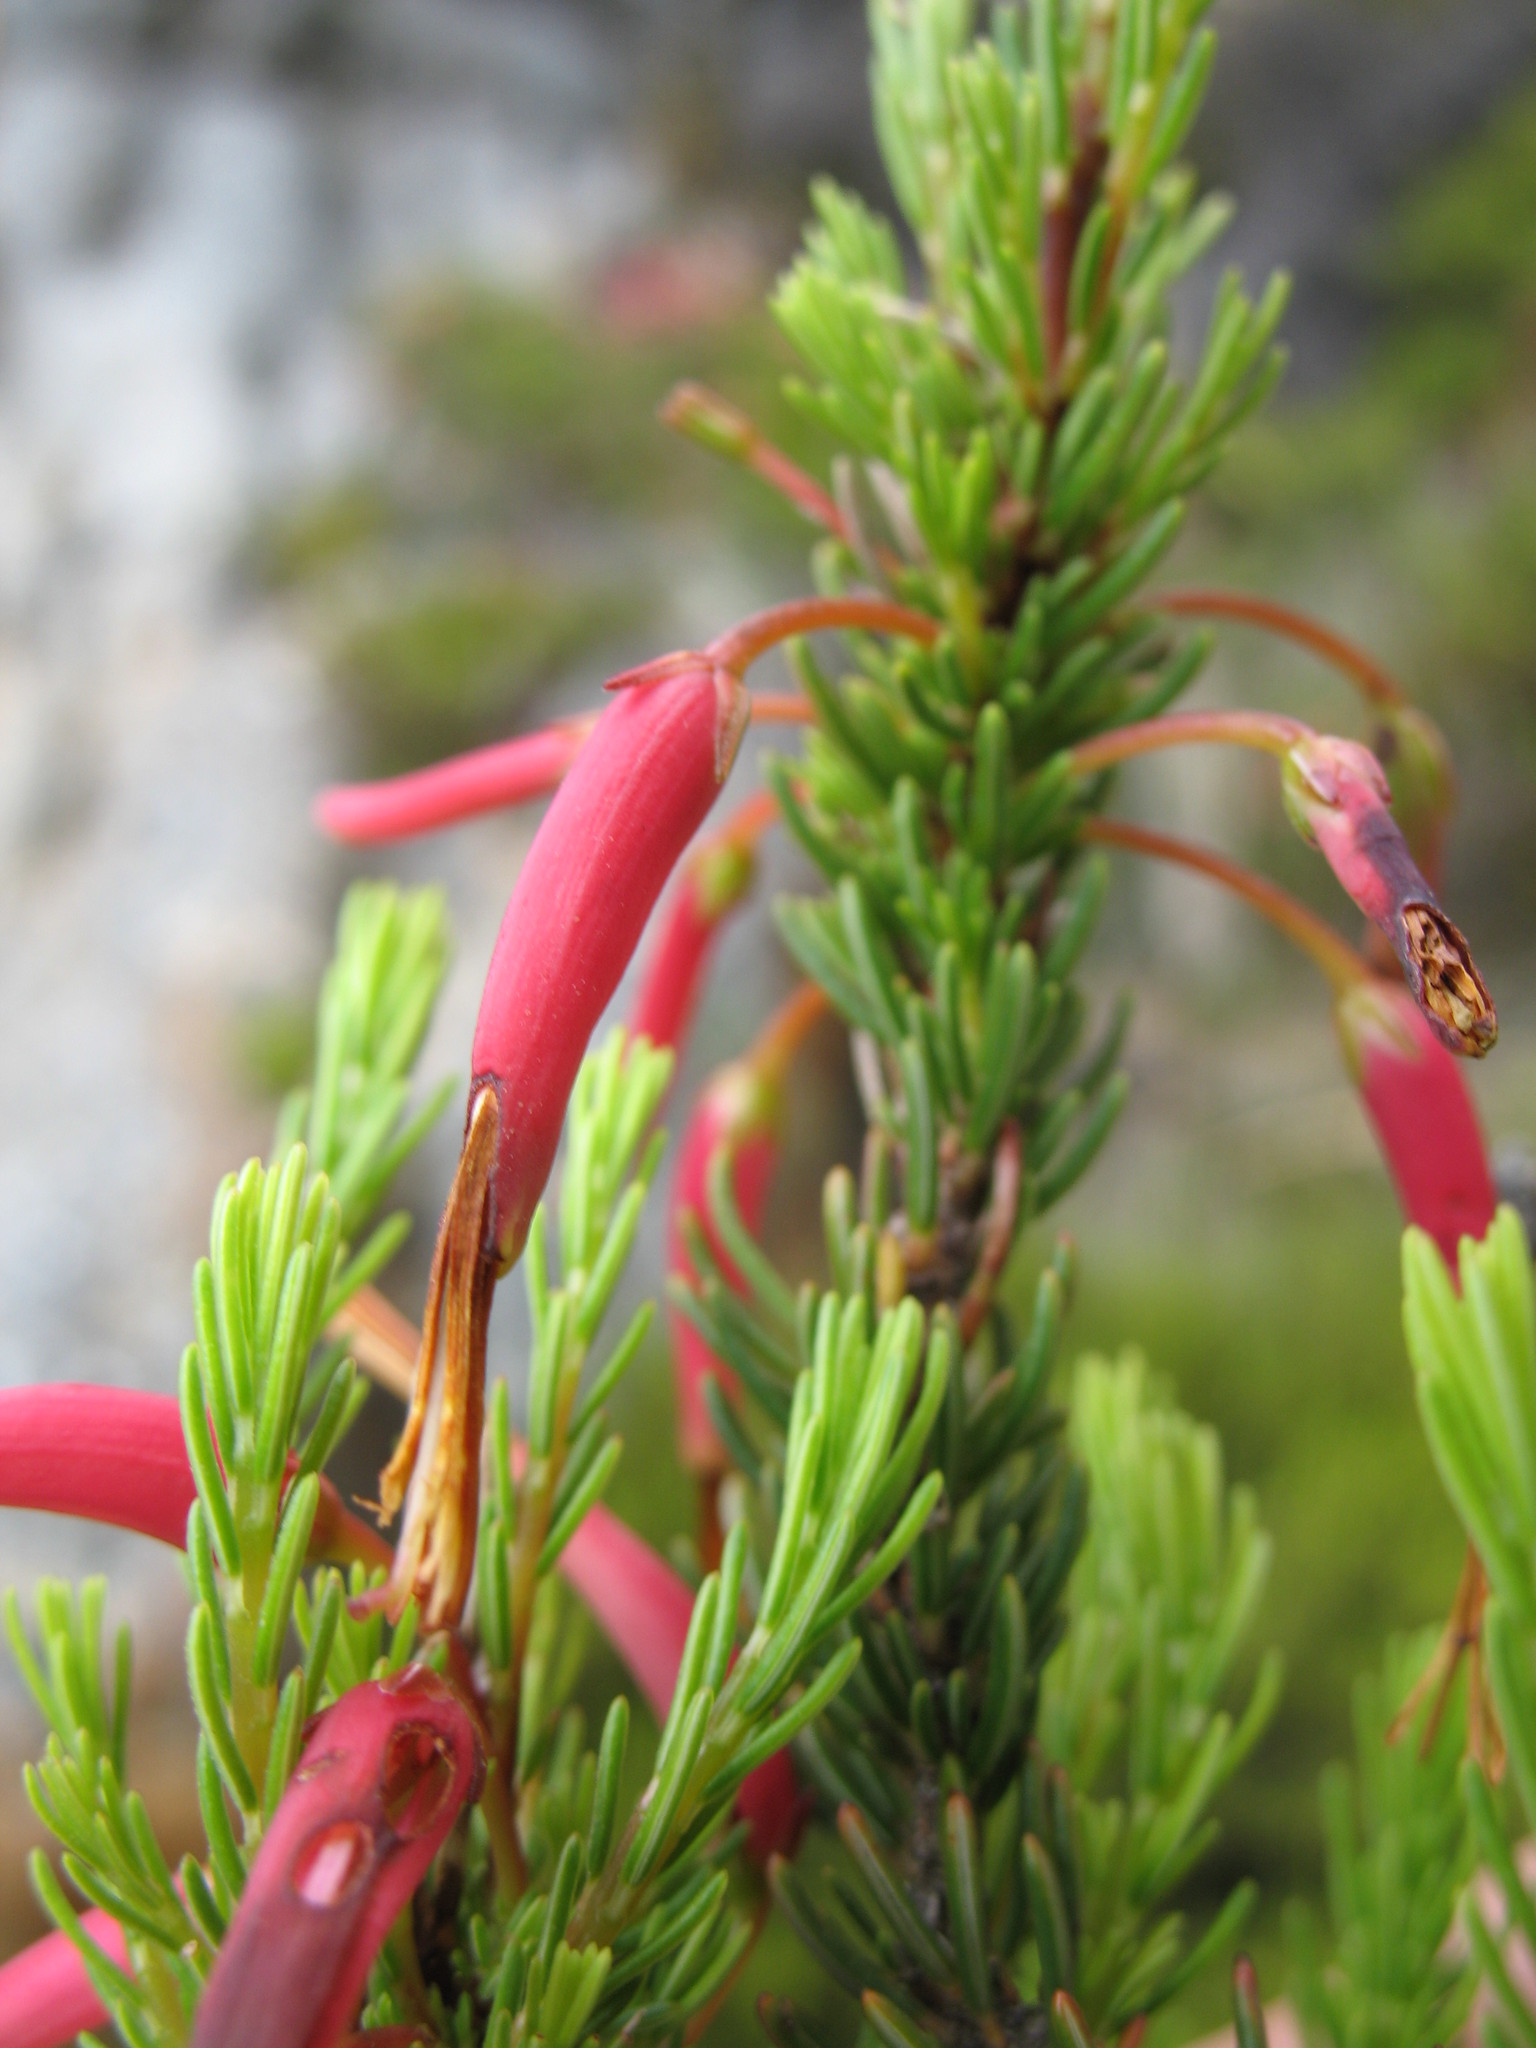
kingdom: Plantae
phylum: Tracheophyta
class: Magnoliopsida
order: Ericales
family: Ericaceae
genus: Erica
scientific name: Erica plukenetii
